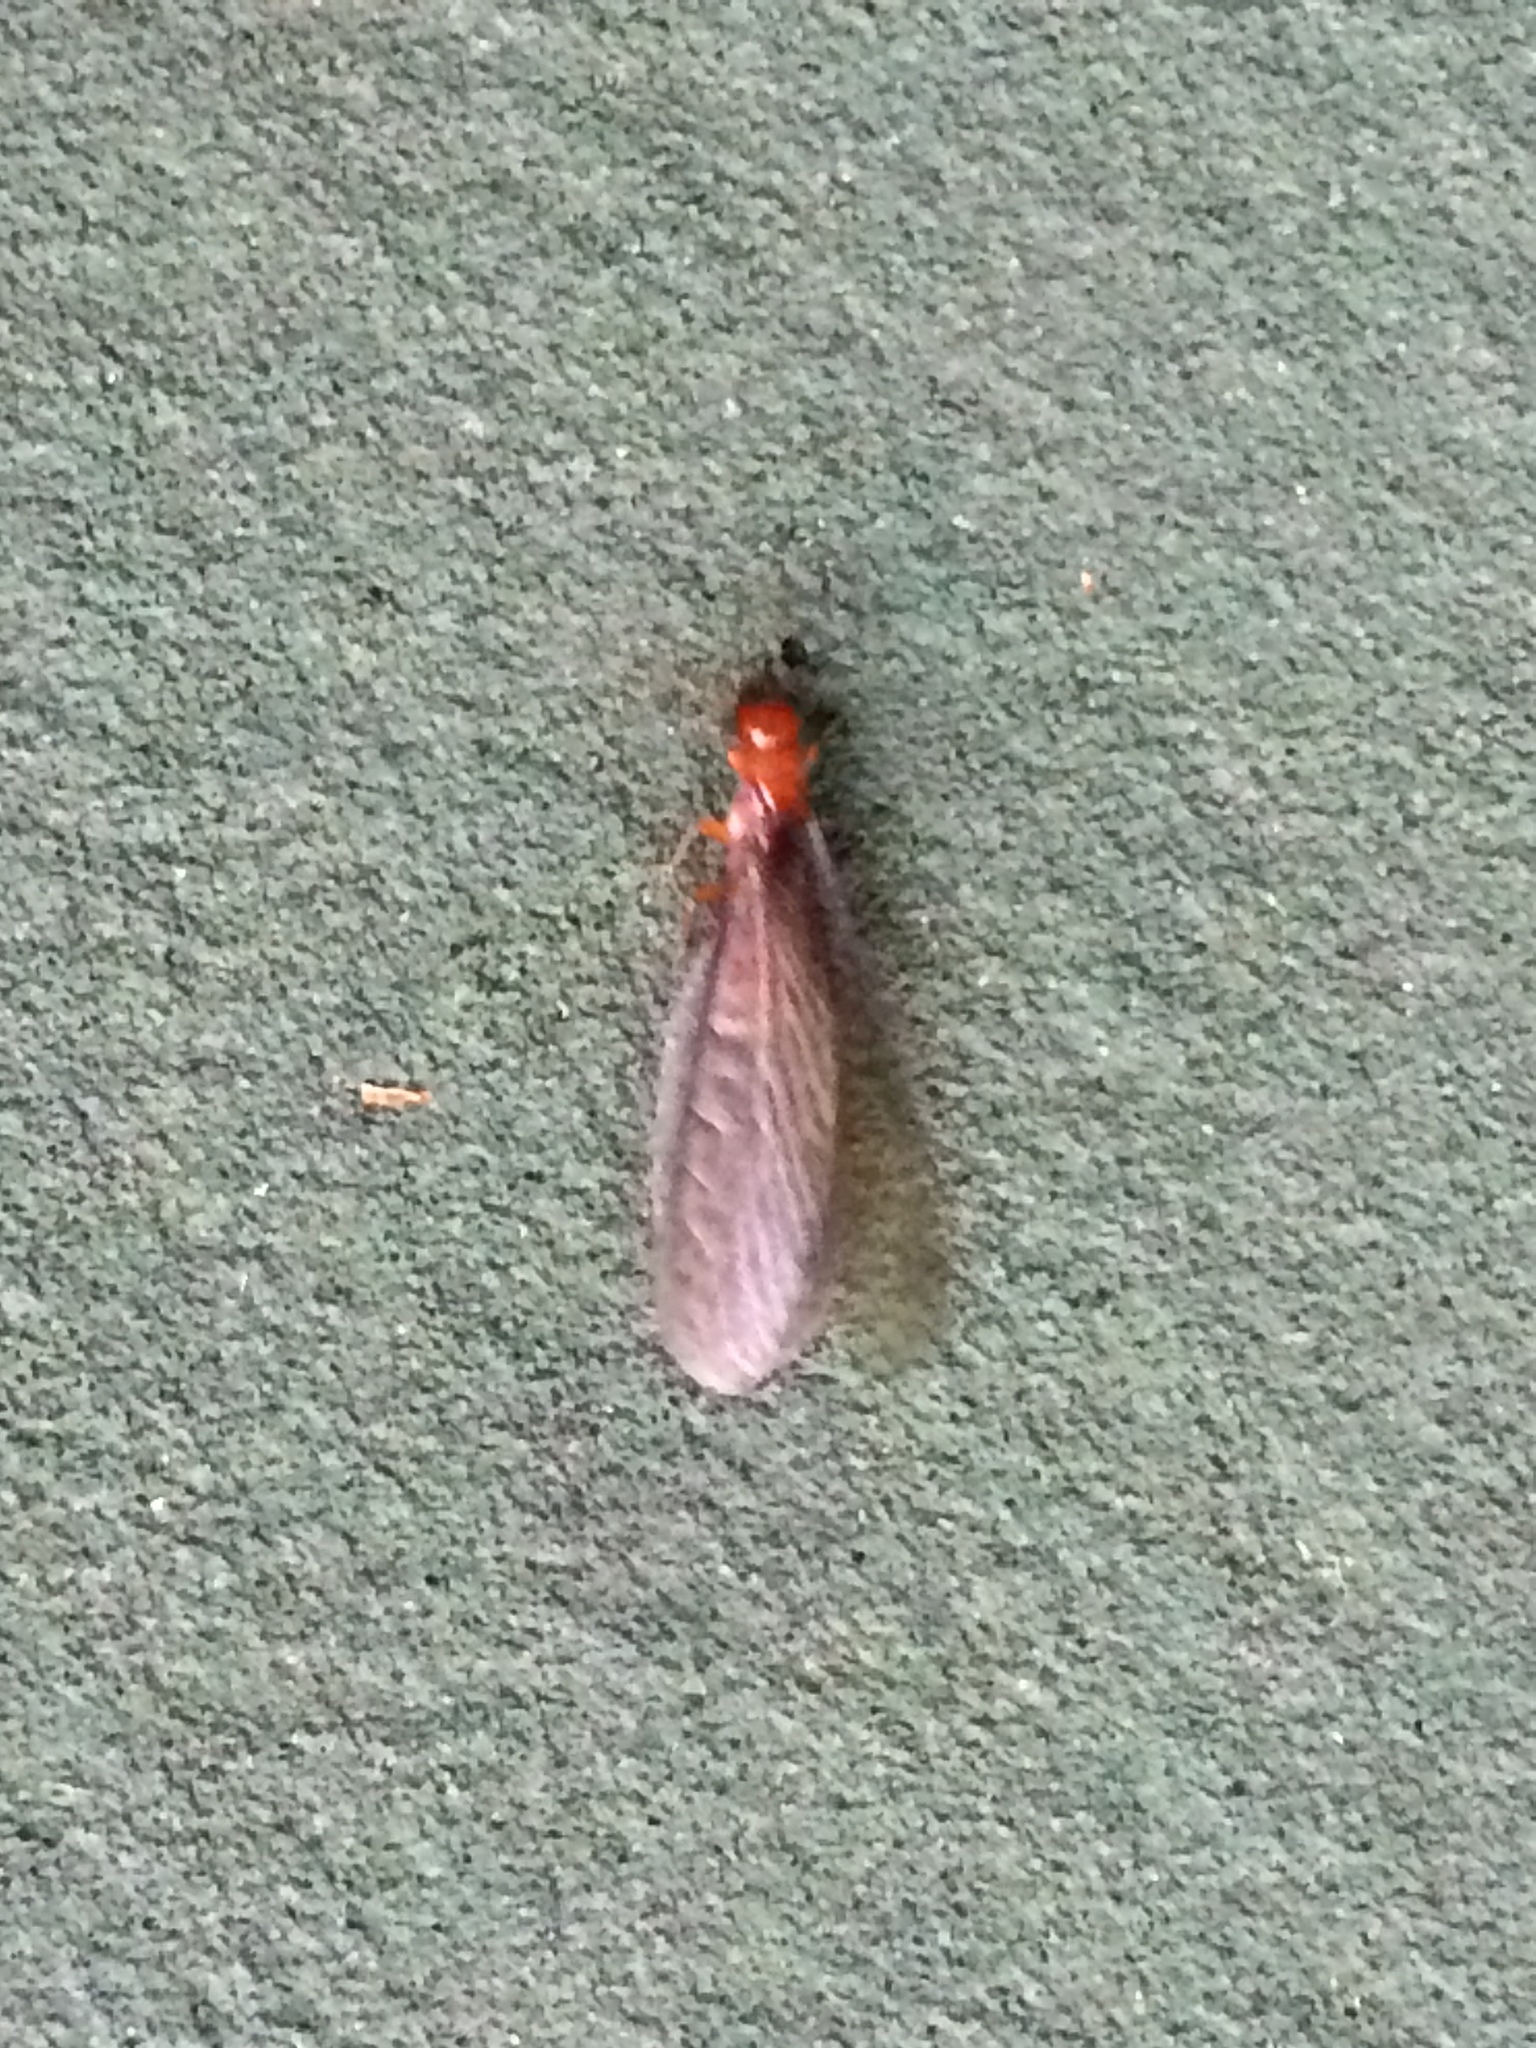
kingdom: Animalia
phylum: Arthropoda
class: Insecta
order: Blattodea
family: Archotermopsidae
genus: Zootermopsis
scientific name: Zootermopsis angusticollis
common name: Rottenwood termite
